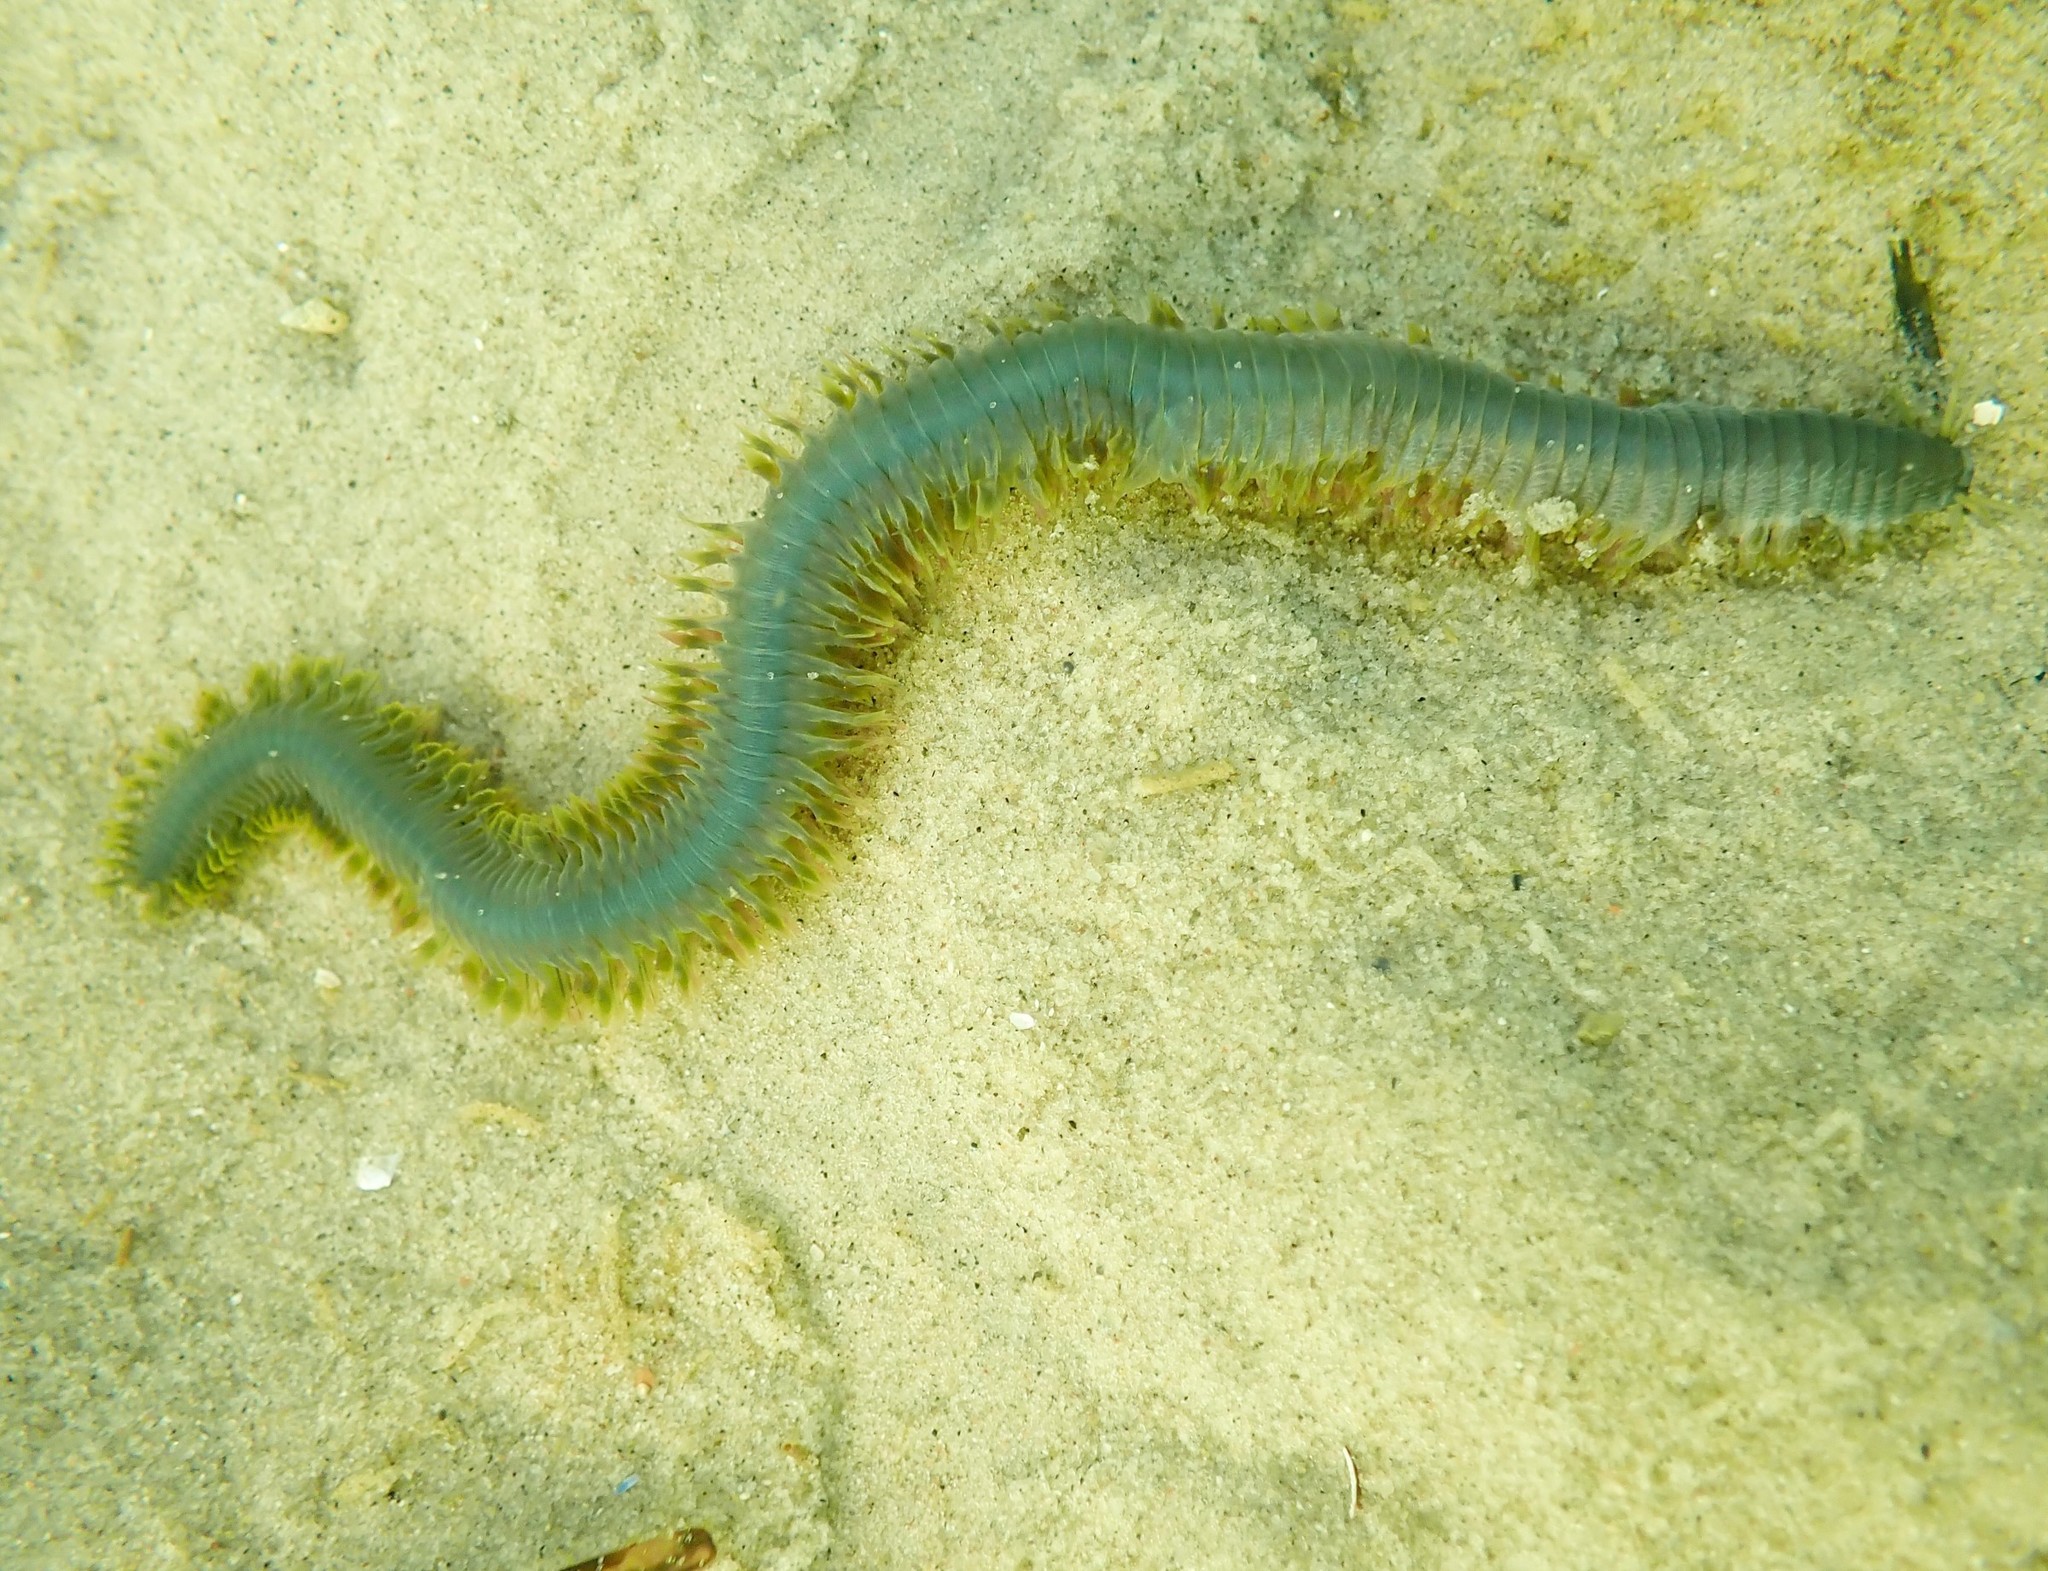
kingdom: Animalia
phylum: Annelida
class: Polychaeta
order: Phyllodocida
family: Nereididae
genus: Alitta
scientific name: Alitta virens
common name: King ragworm
